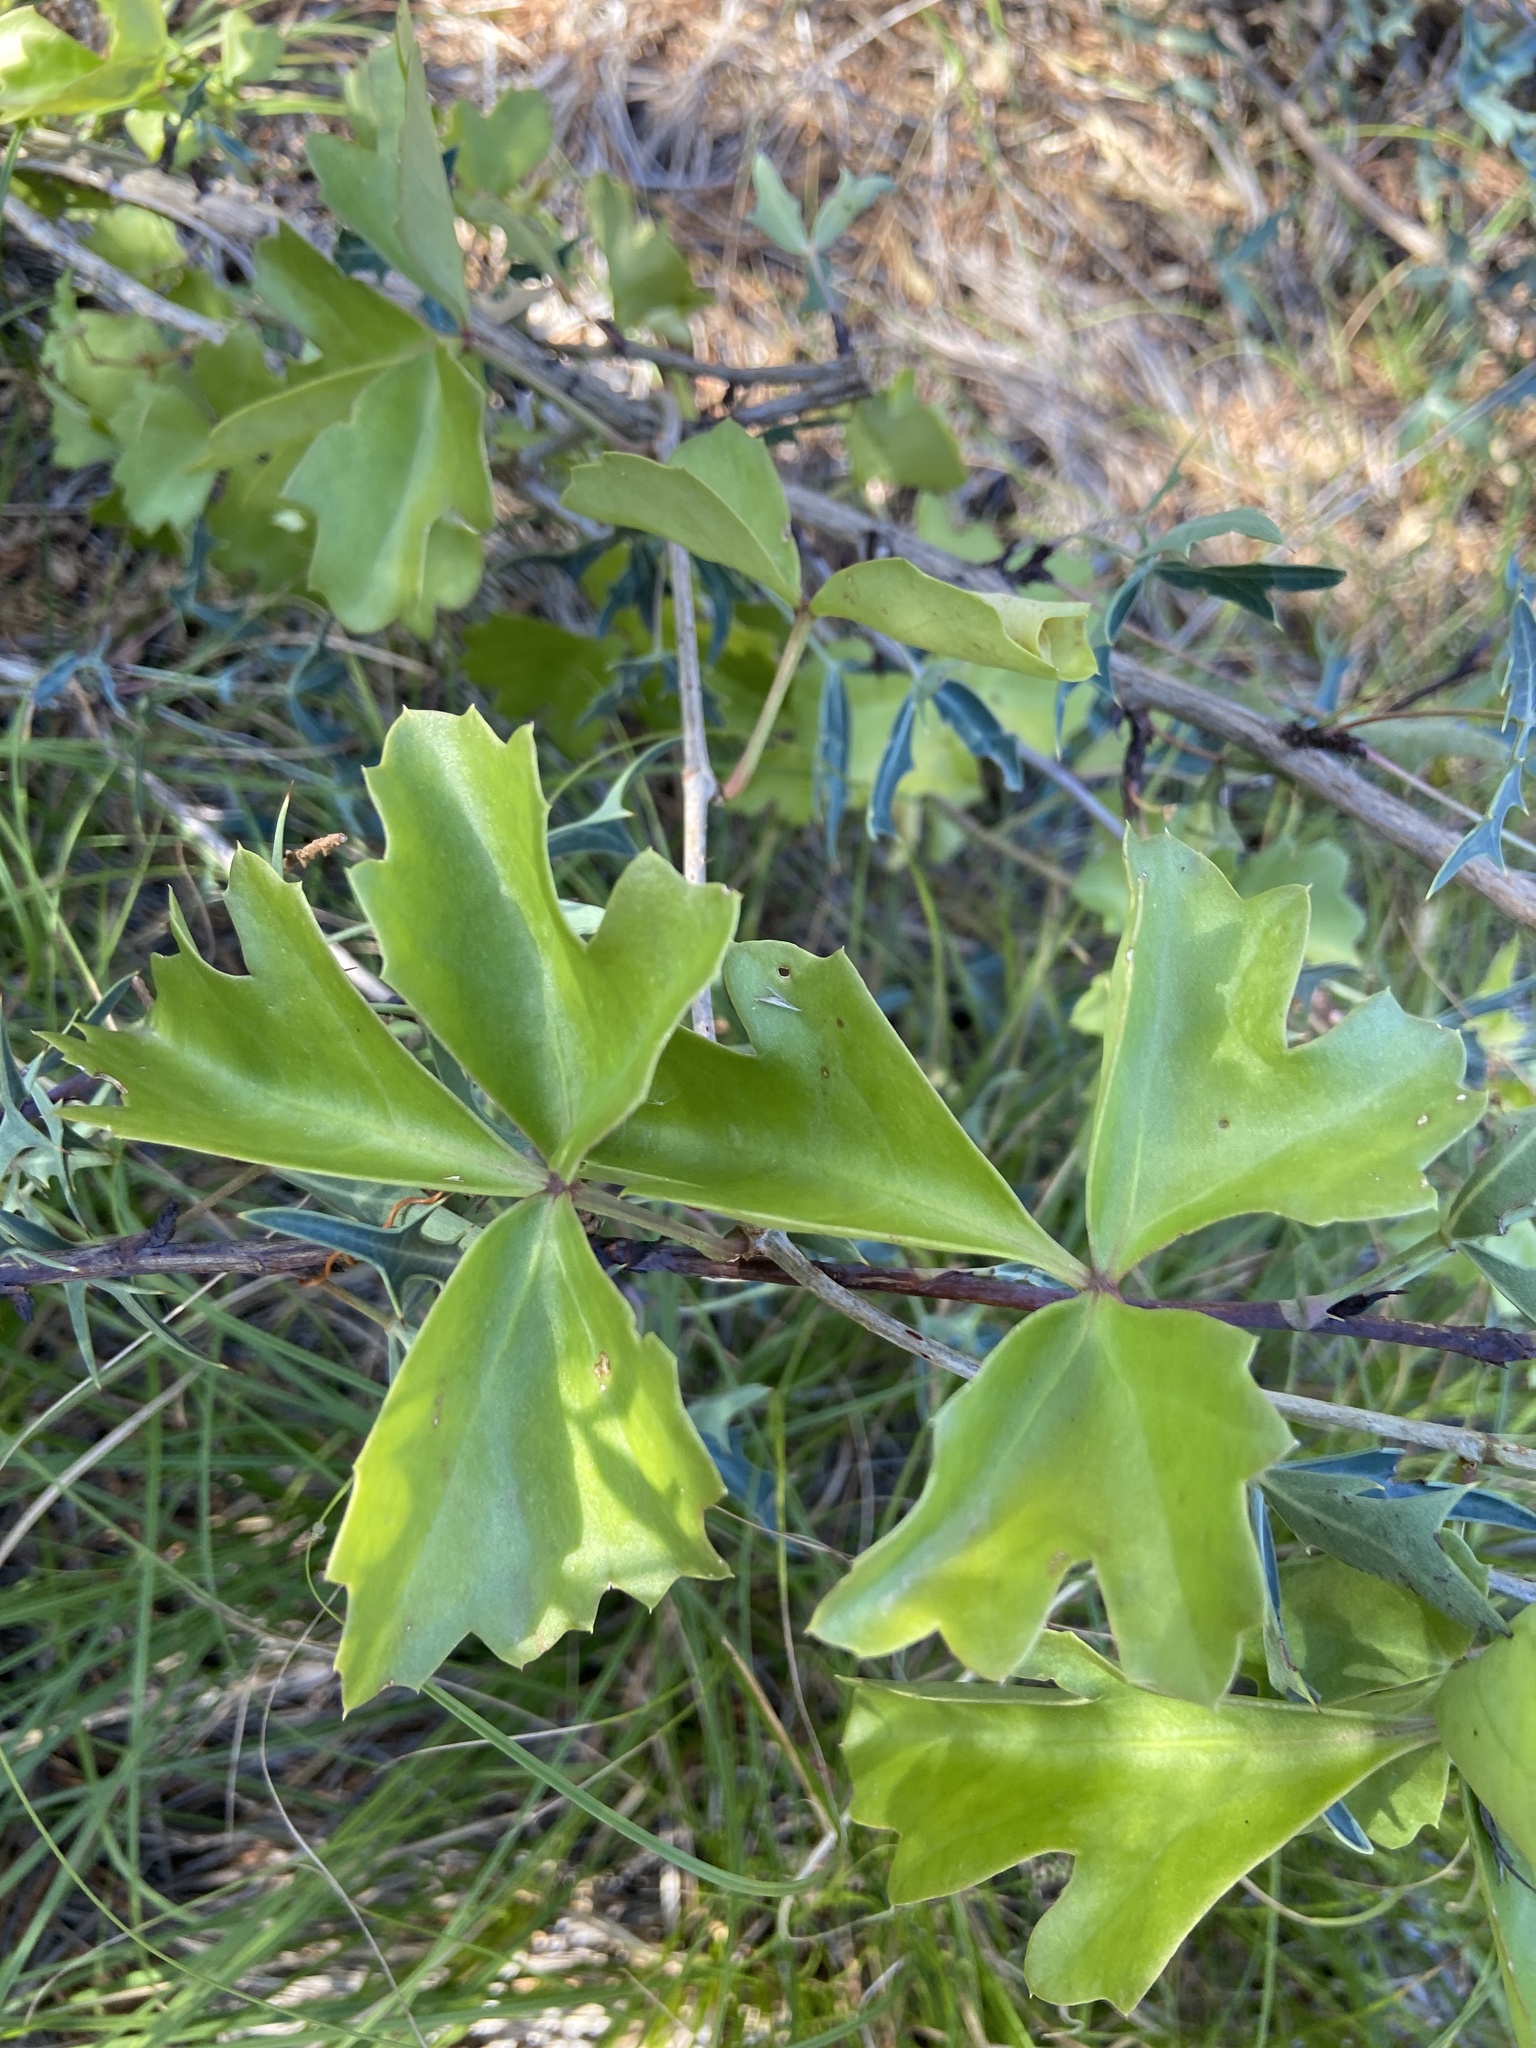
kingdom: Plantae
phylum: Tracheophyta
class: Magnoliopsida
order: Vitales
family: Vitaceae
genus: Cissus
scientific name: Cissus trifoliata
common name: Vine-sorrel
